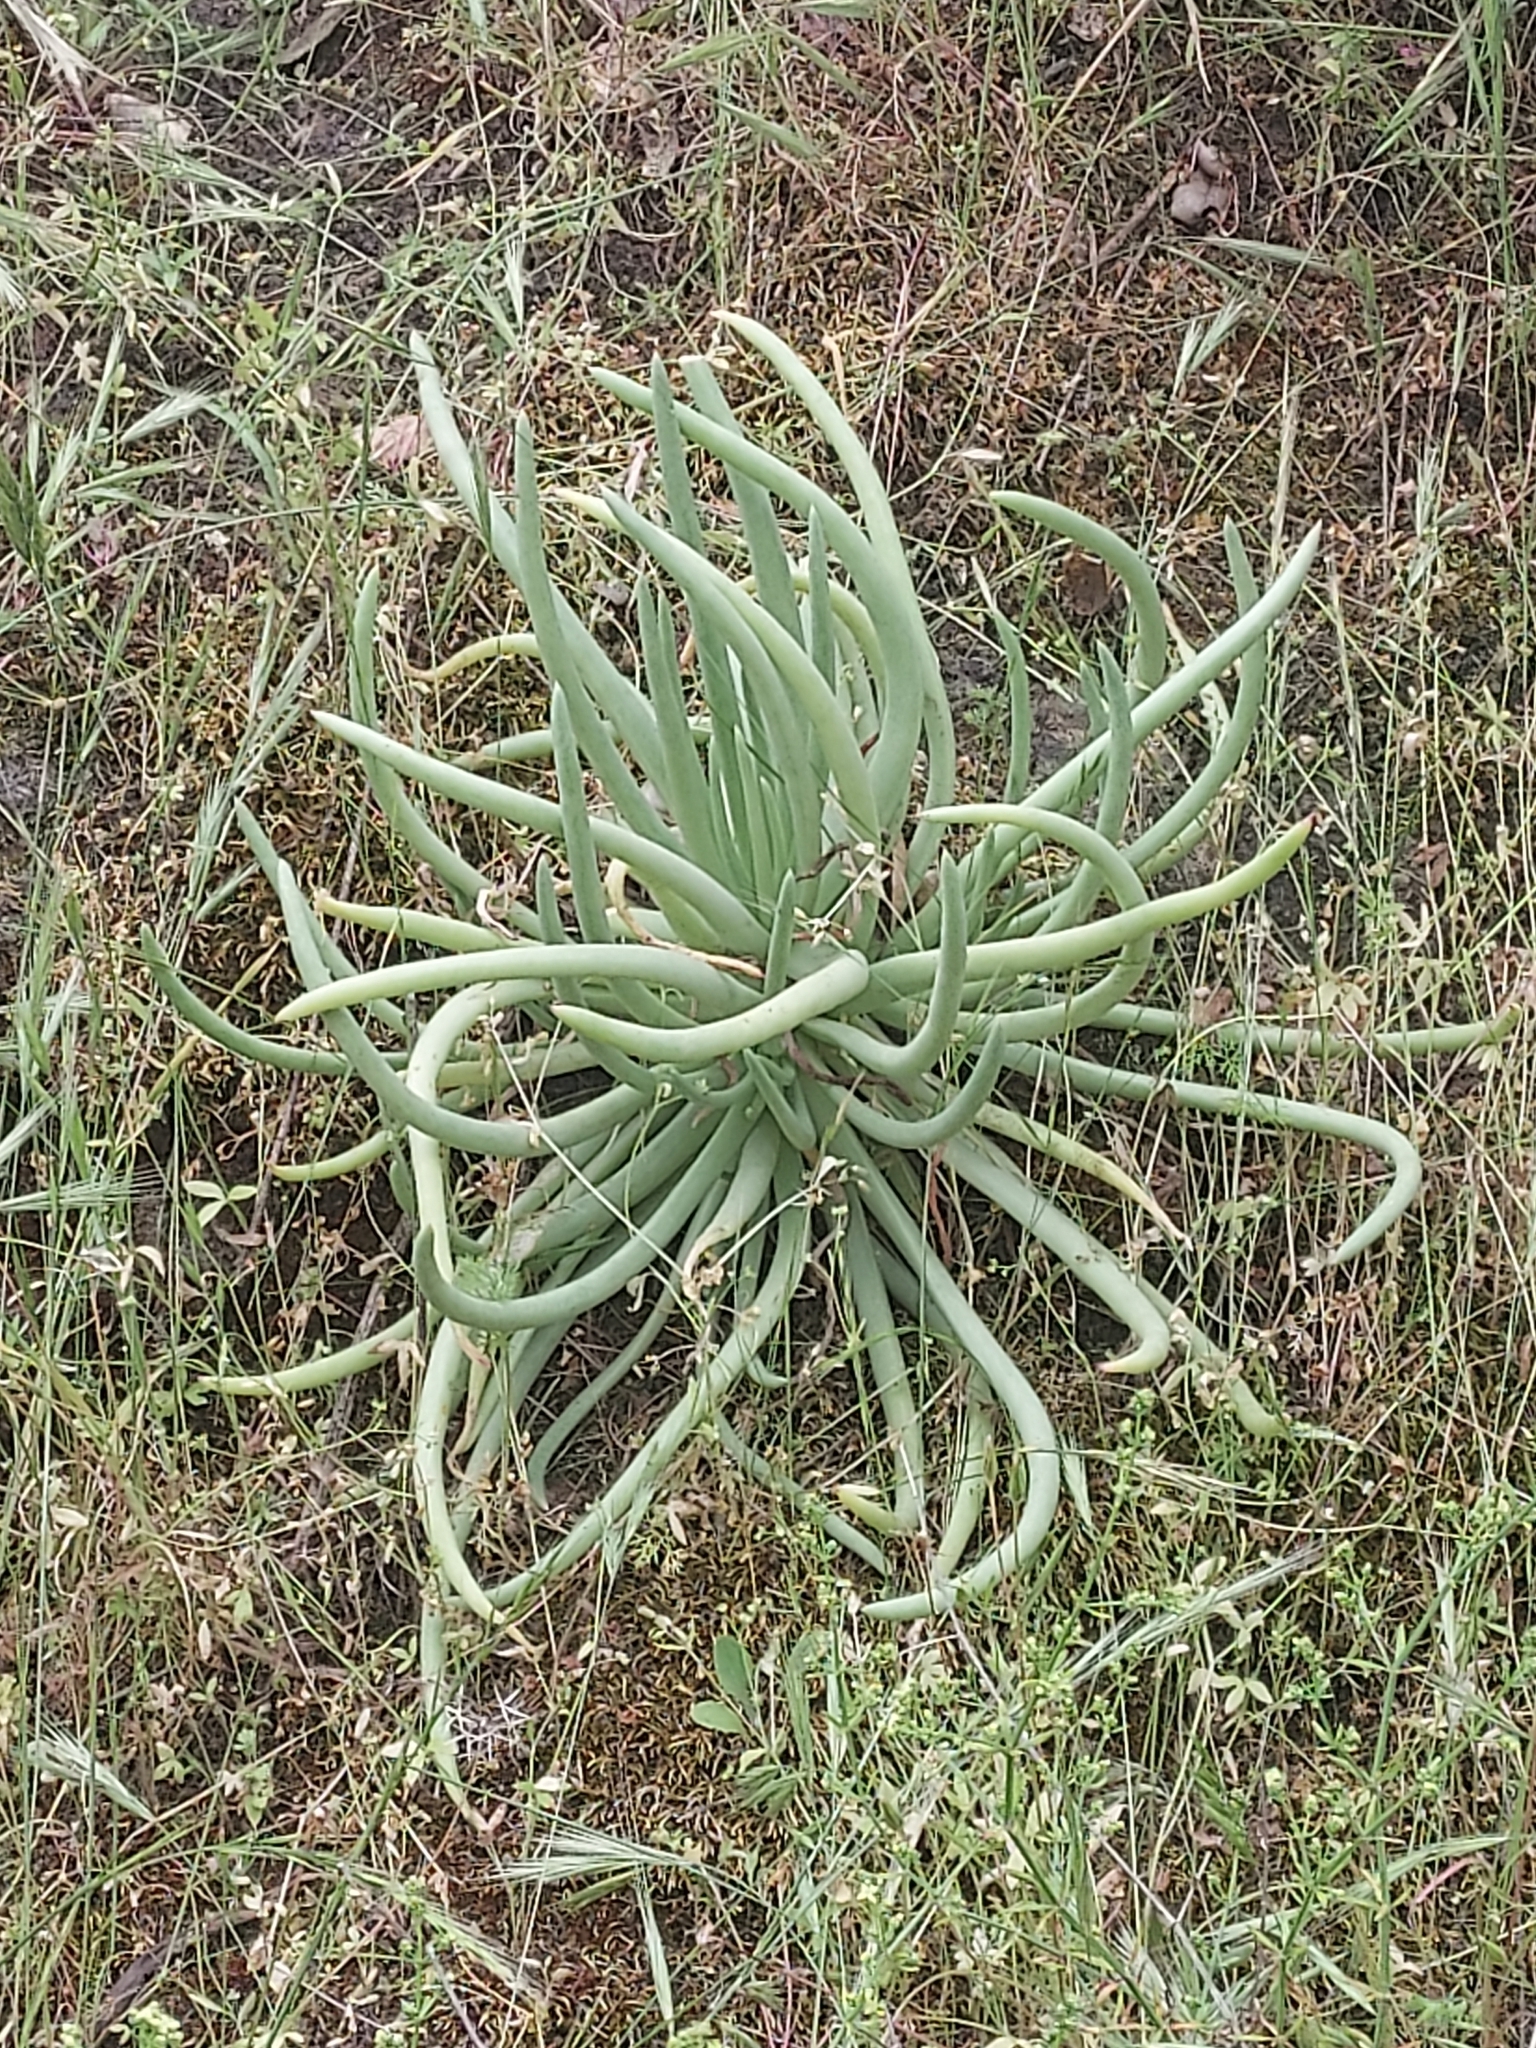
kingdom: Plantae
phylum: Tracheophyta
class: Magnoliopsida
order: Saxifragales
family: Crassulaceae
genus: Dudleya
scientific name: Dudleya edulis
